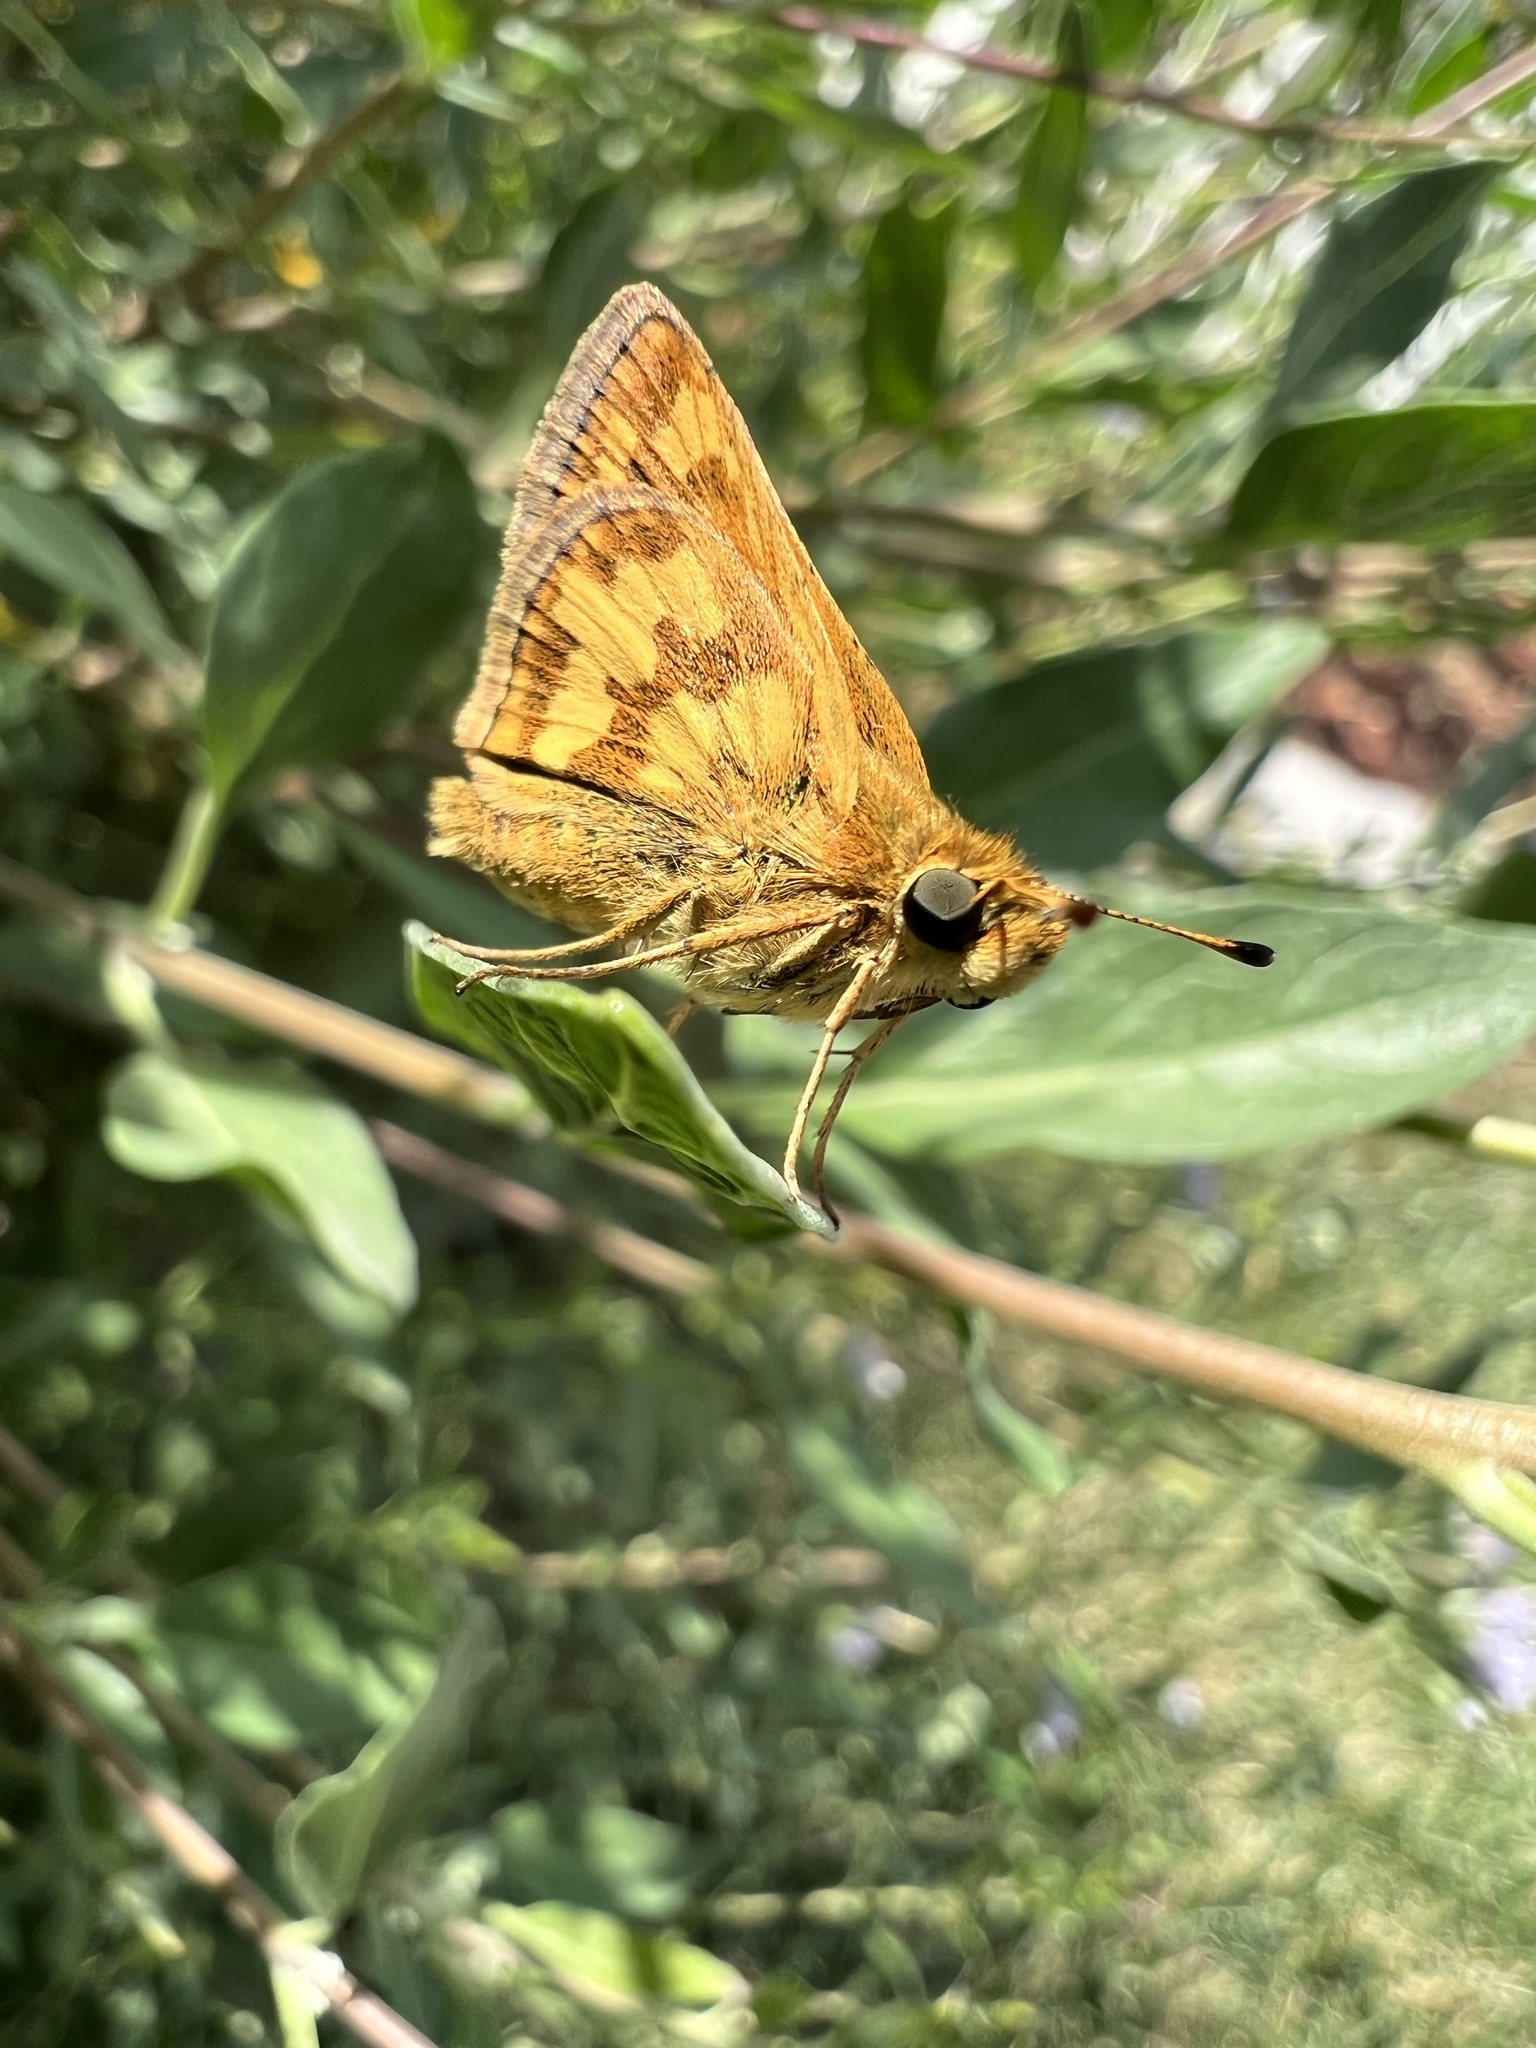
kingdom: Animalia
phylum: Arthropoda
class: Insecta
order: Lepidoptera
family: Hesperiidae
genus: Polites
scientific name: Polites coras
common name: Peck's skipper
